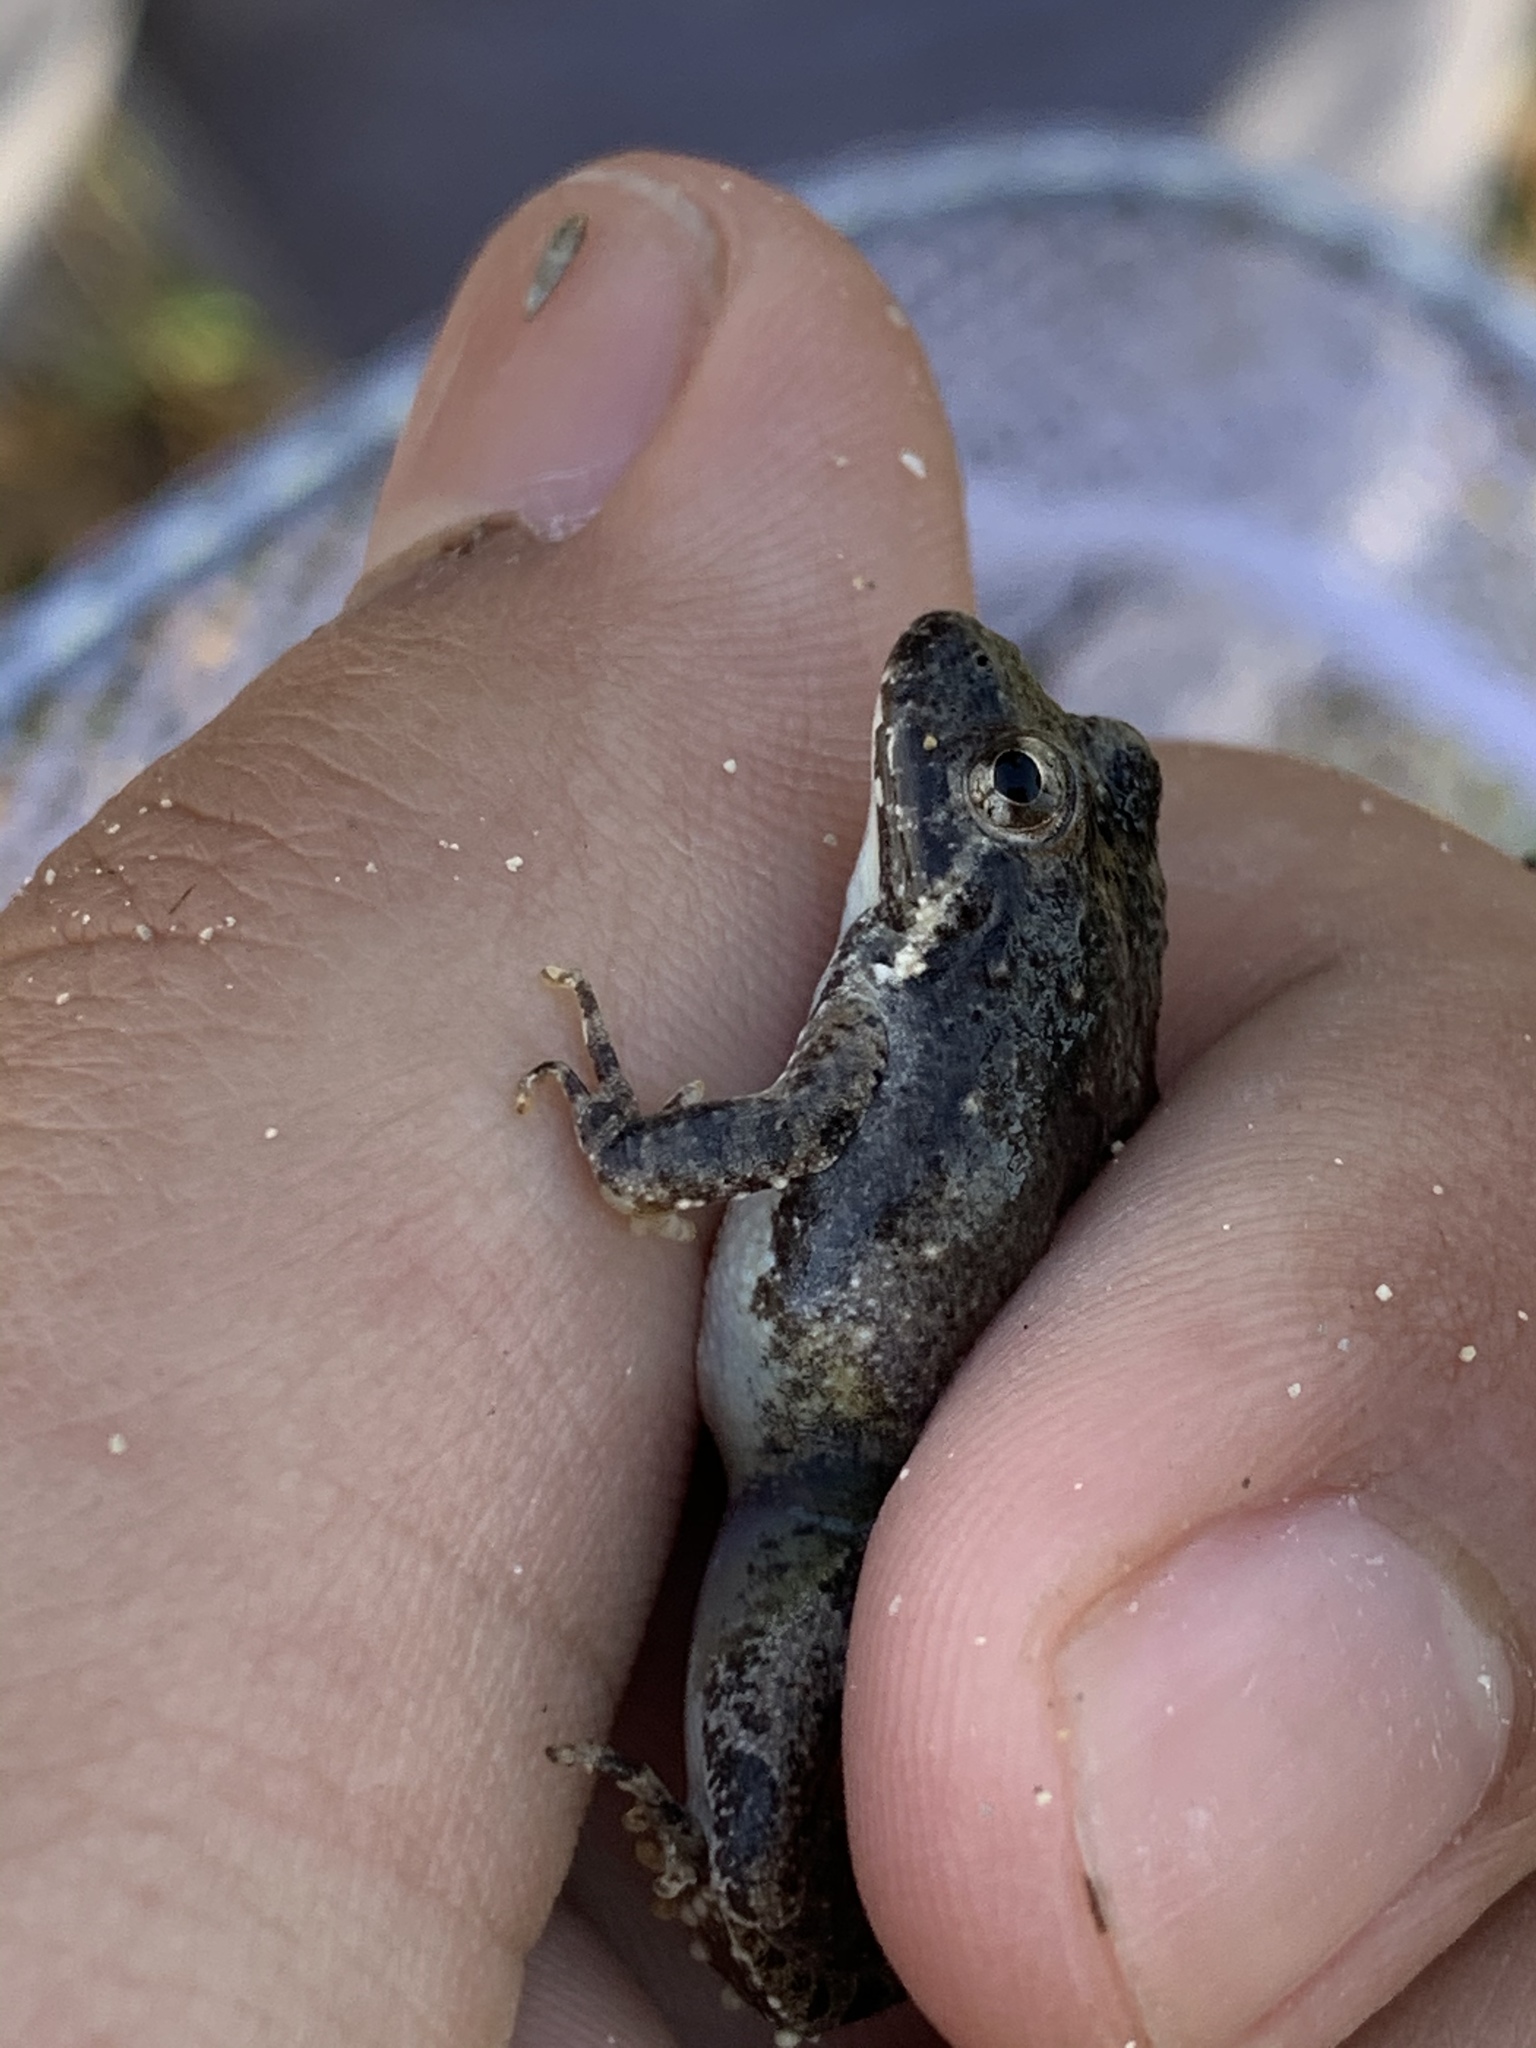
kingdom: Animalia
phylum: Chordata
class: Amphibia
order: Anura
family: Hylidae
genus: Acris
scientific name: Acris blanchardi
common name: Blanchard's cricket frog
